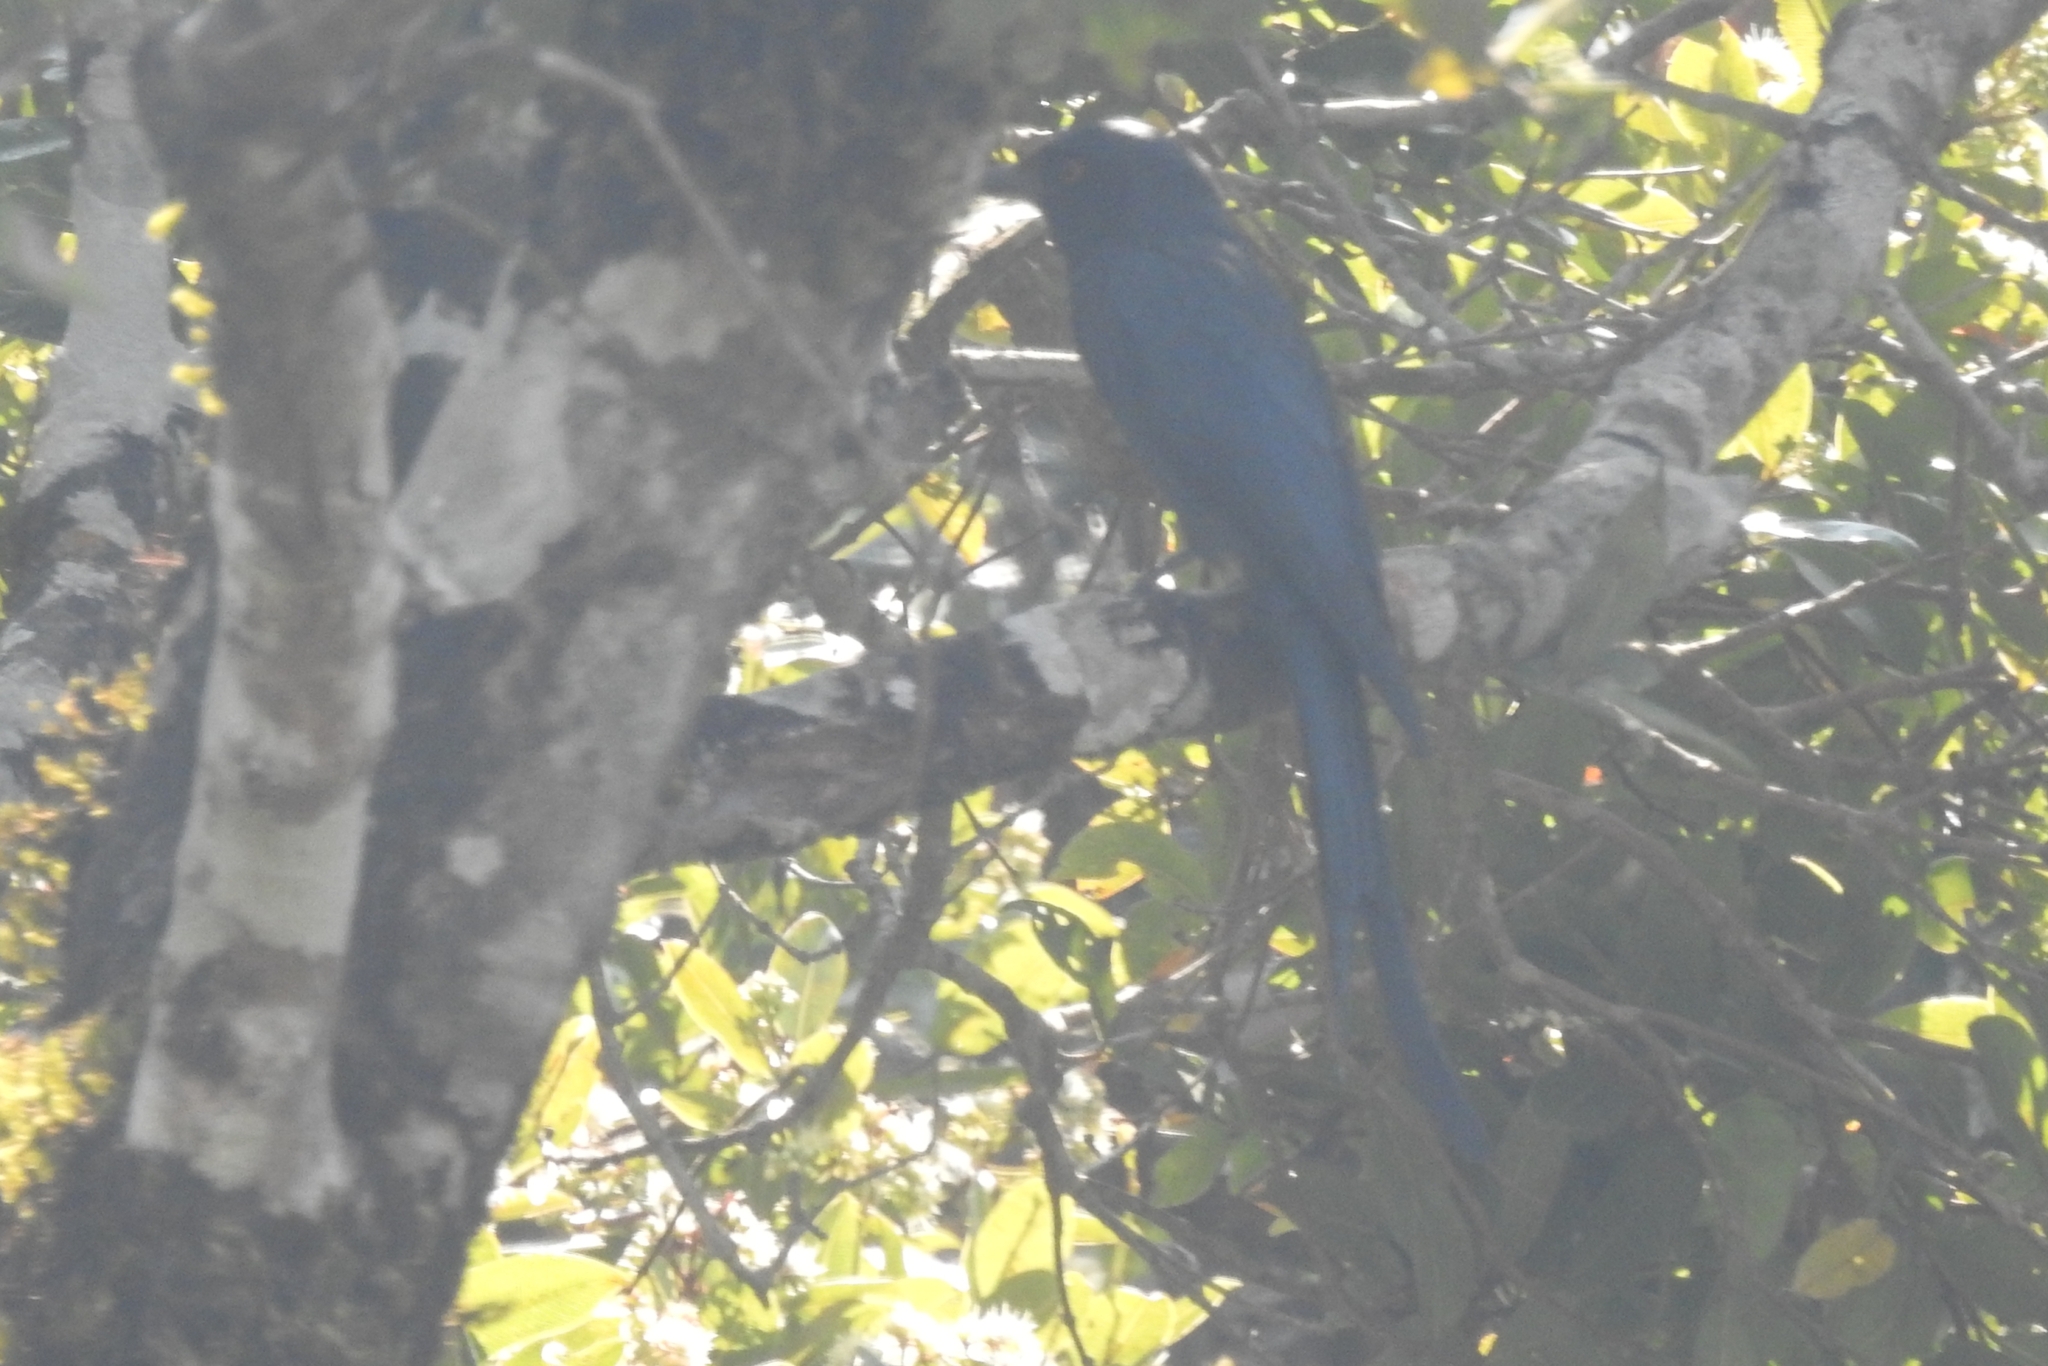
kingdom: Animalia
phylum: Chordata
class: Aves
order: Passeriformes
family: Dicruridae
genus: Dicrurus
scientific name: Dicrurus leucophaeus
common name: Ashy drongo
